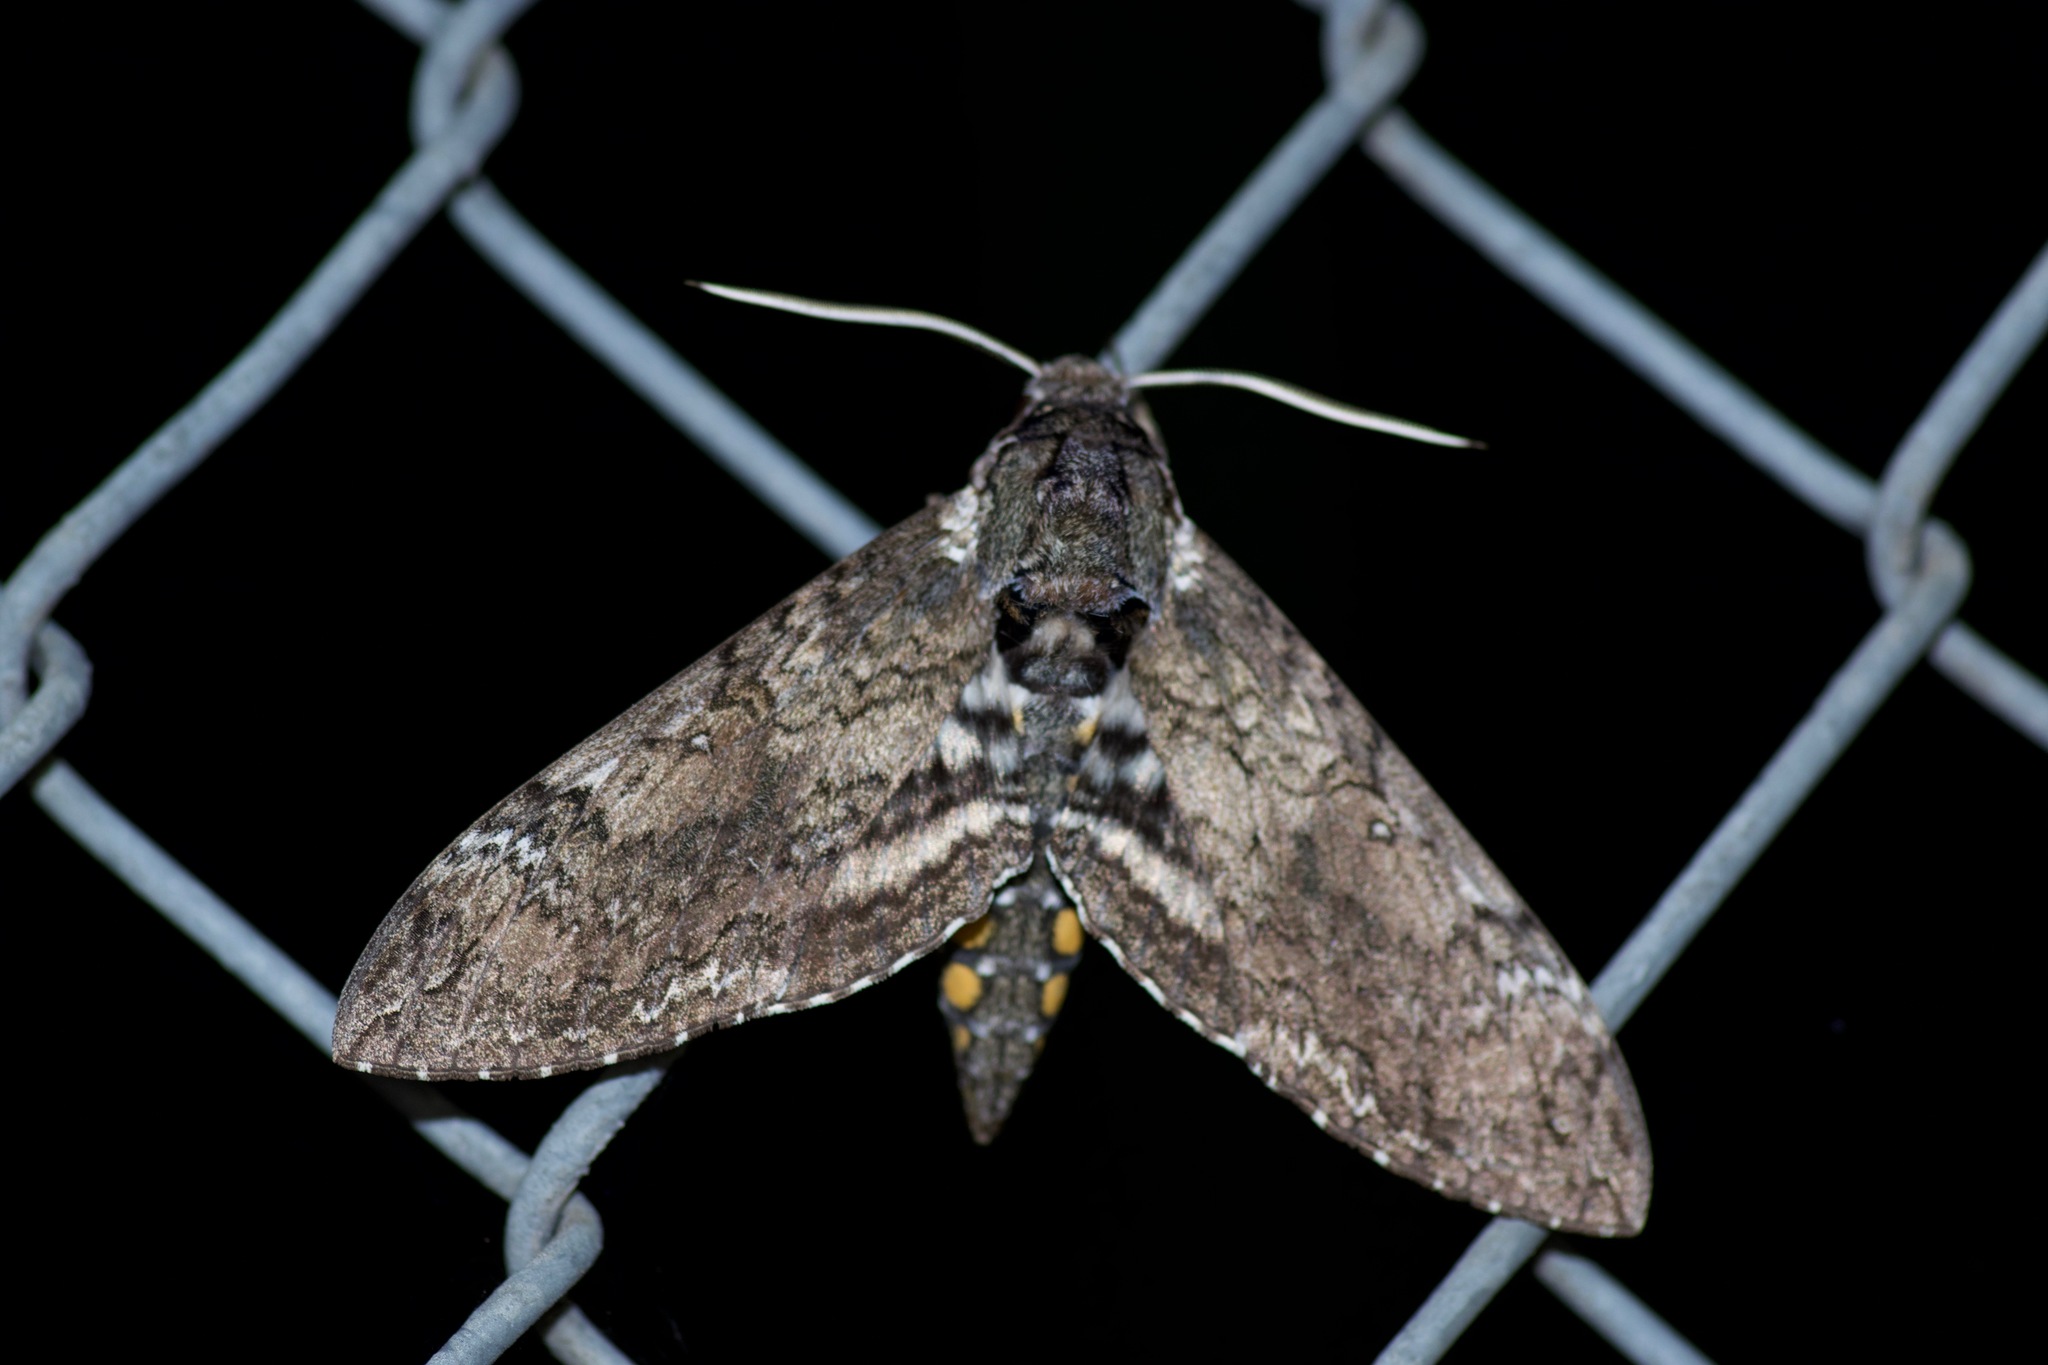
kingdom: Animalia
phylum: Arthropoda
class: Insecta
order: Lepidoptera
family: Sphingidae
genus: Manduca
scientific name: Manduca sexta
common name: Carolina sphinx
